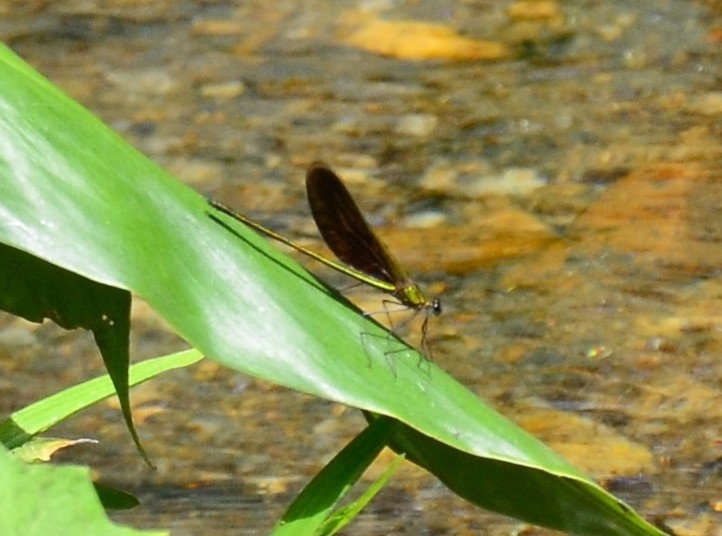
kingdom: Animalia
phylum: Arthropoda
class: Insecta
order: Odonata
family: Calopterygidae
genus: Neurobasis
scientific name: Neurobasis chinensis
